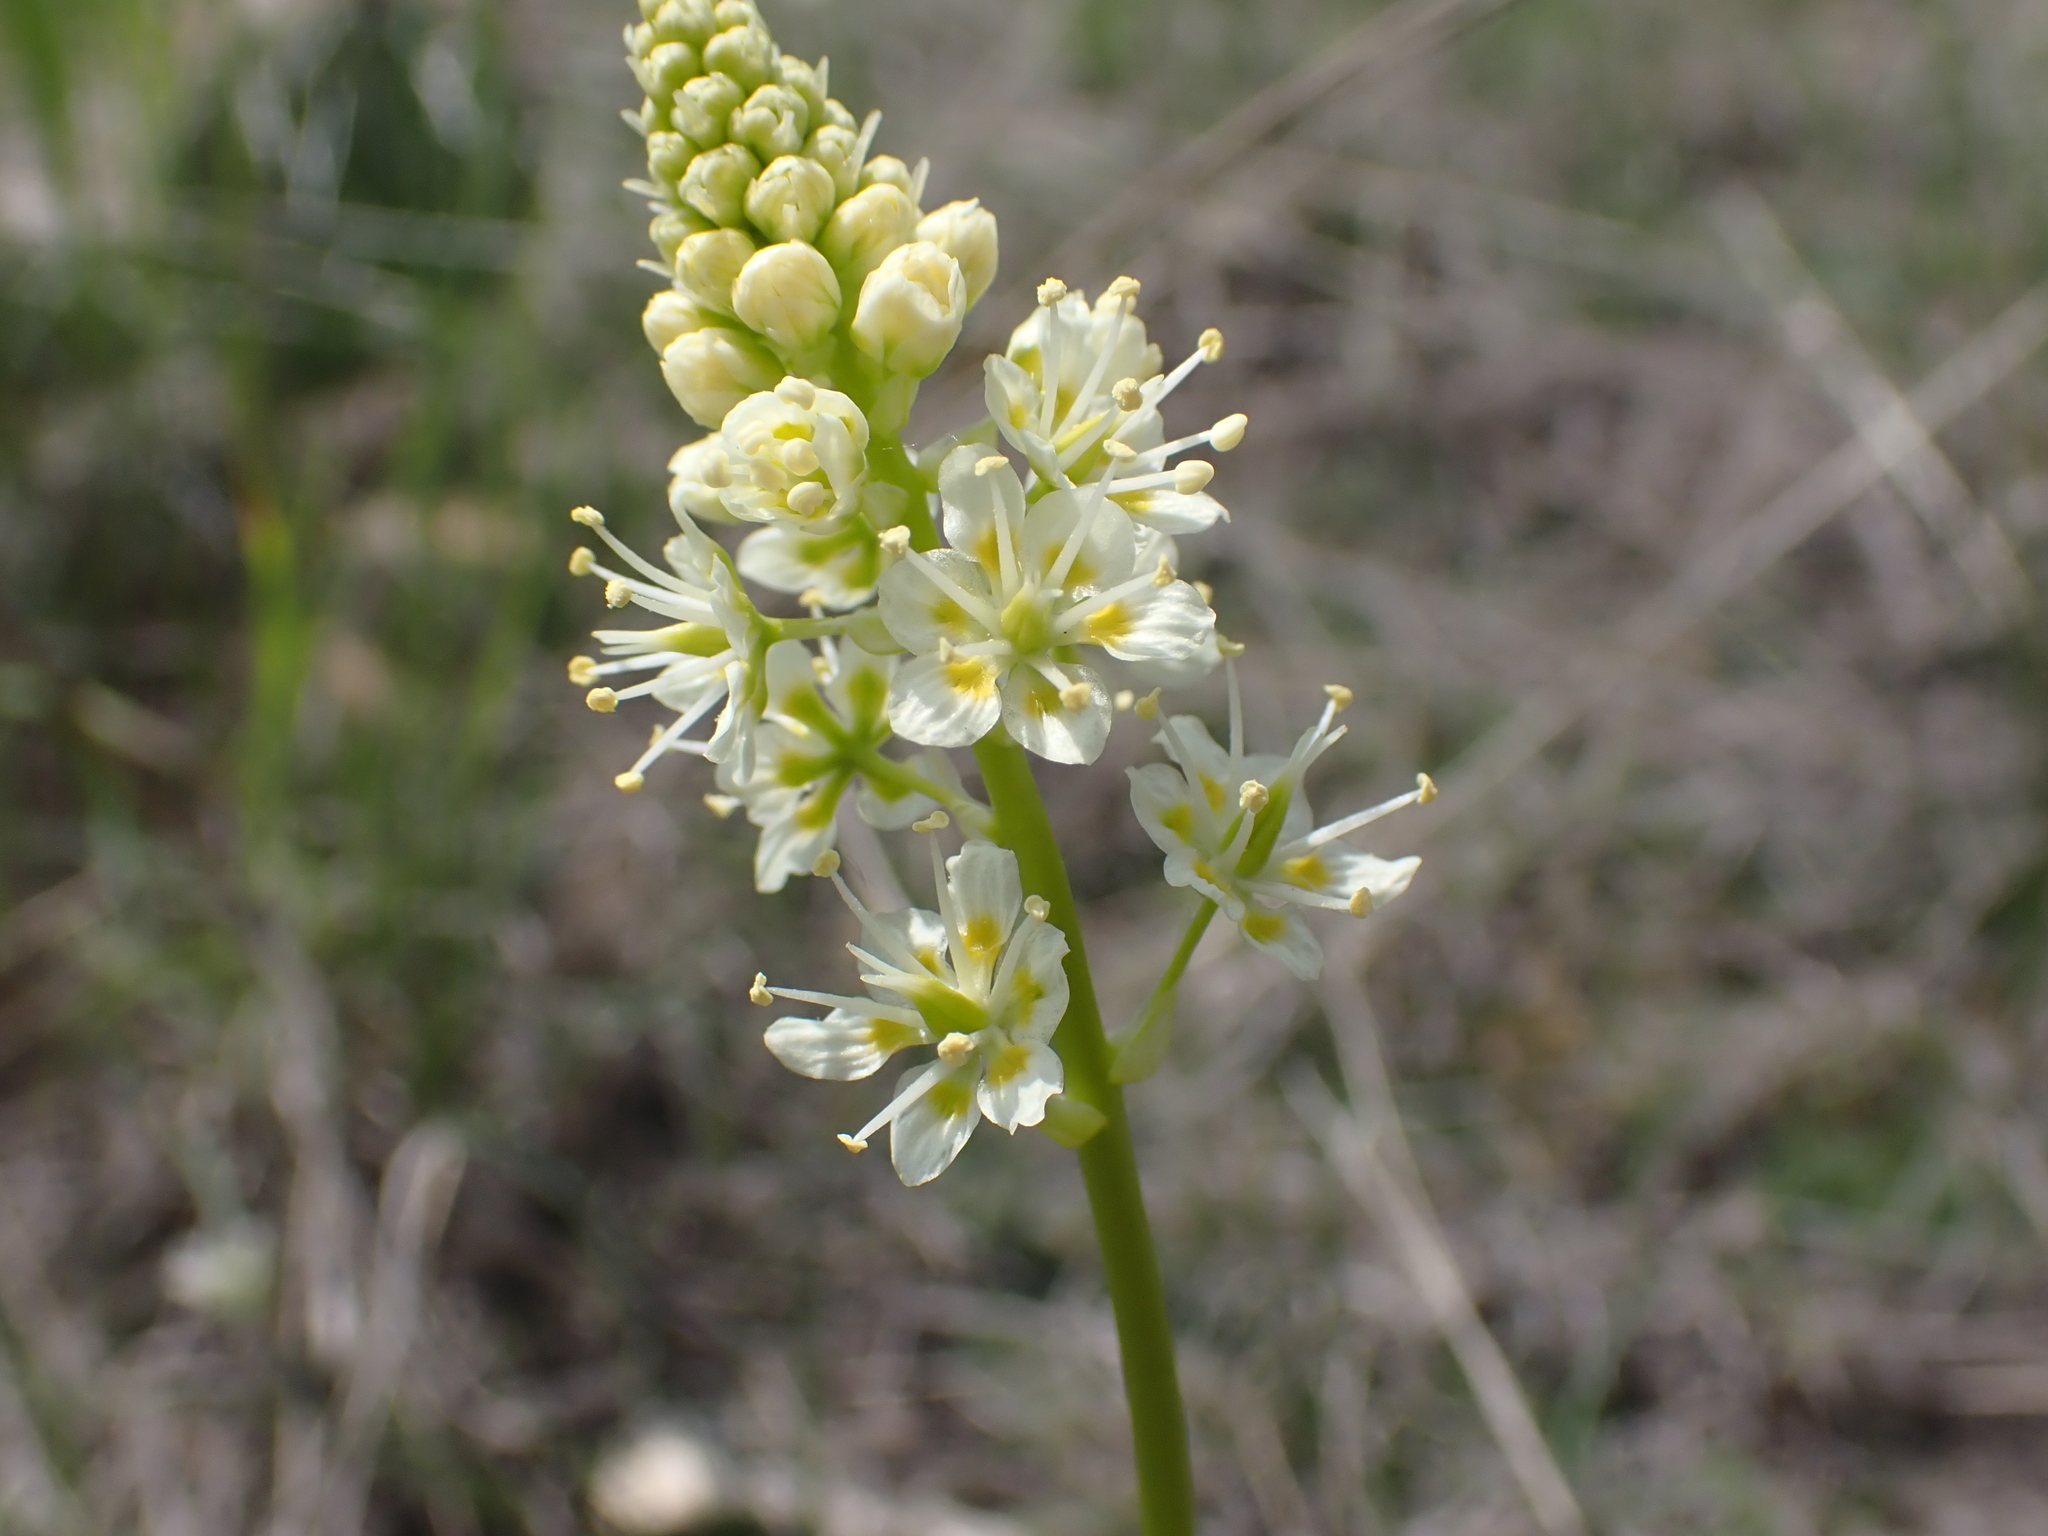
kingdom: Plantae
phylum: Tracheophyta
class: Liliopsida
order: Liliales
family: Melanthiaceae
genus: Toxicoscordion
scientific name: Toxicoscordion venenosum
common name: Meadow death camas
